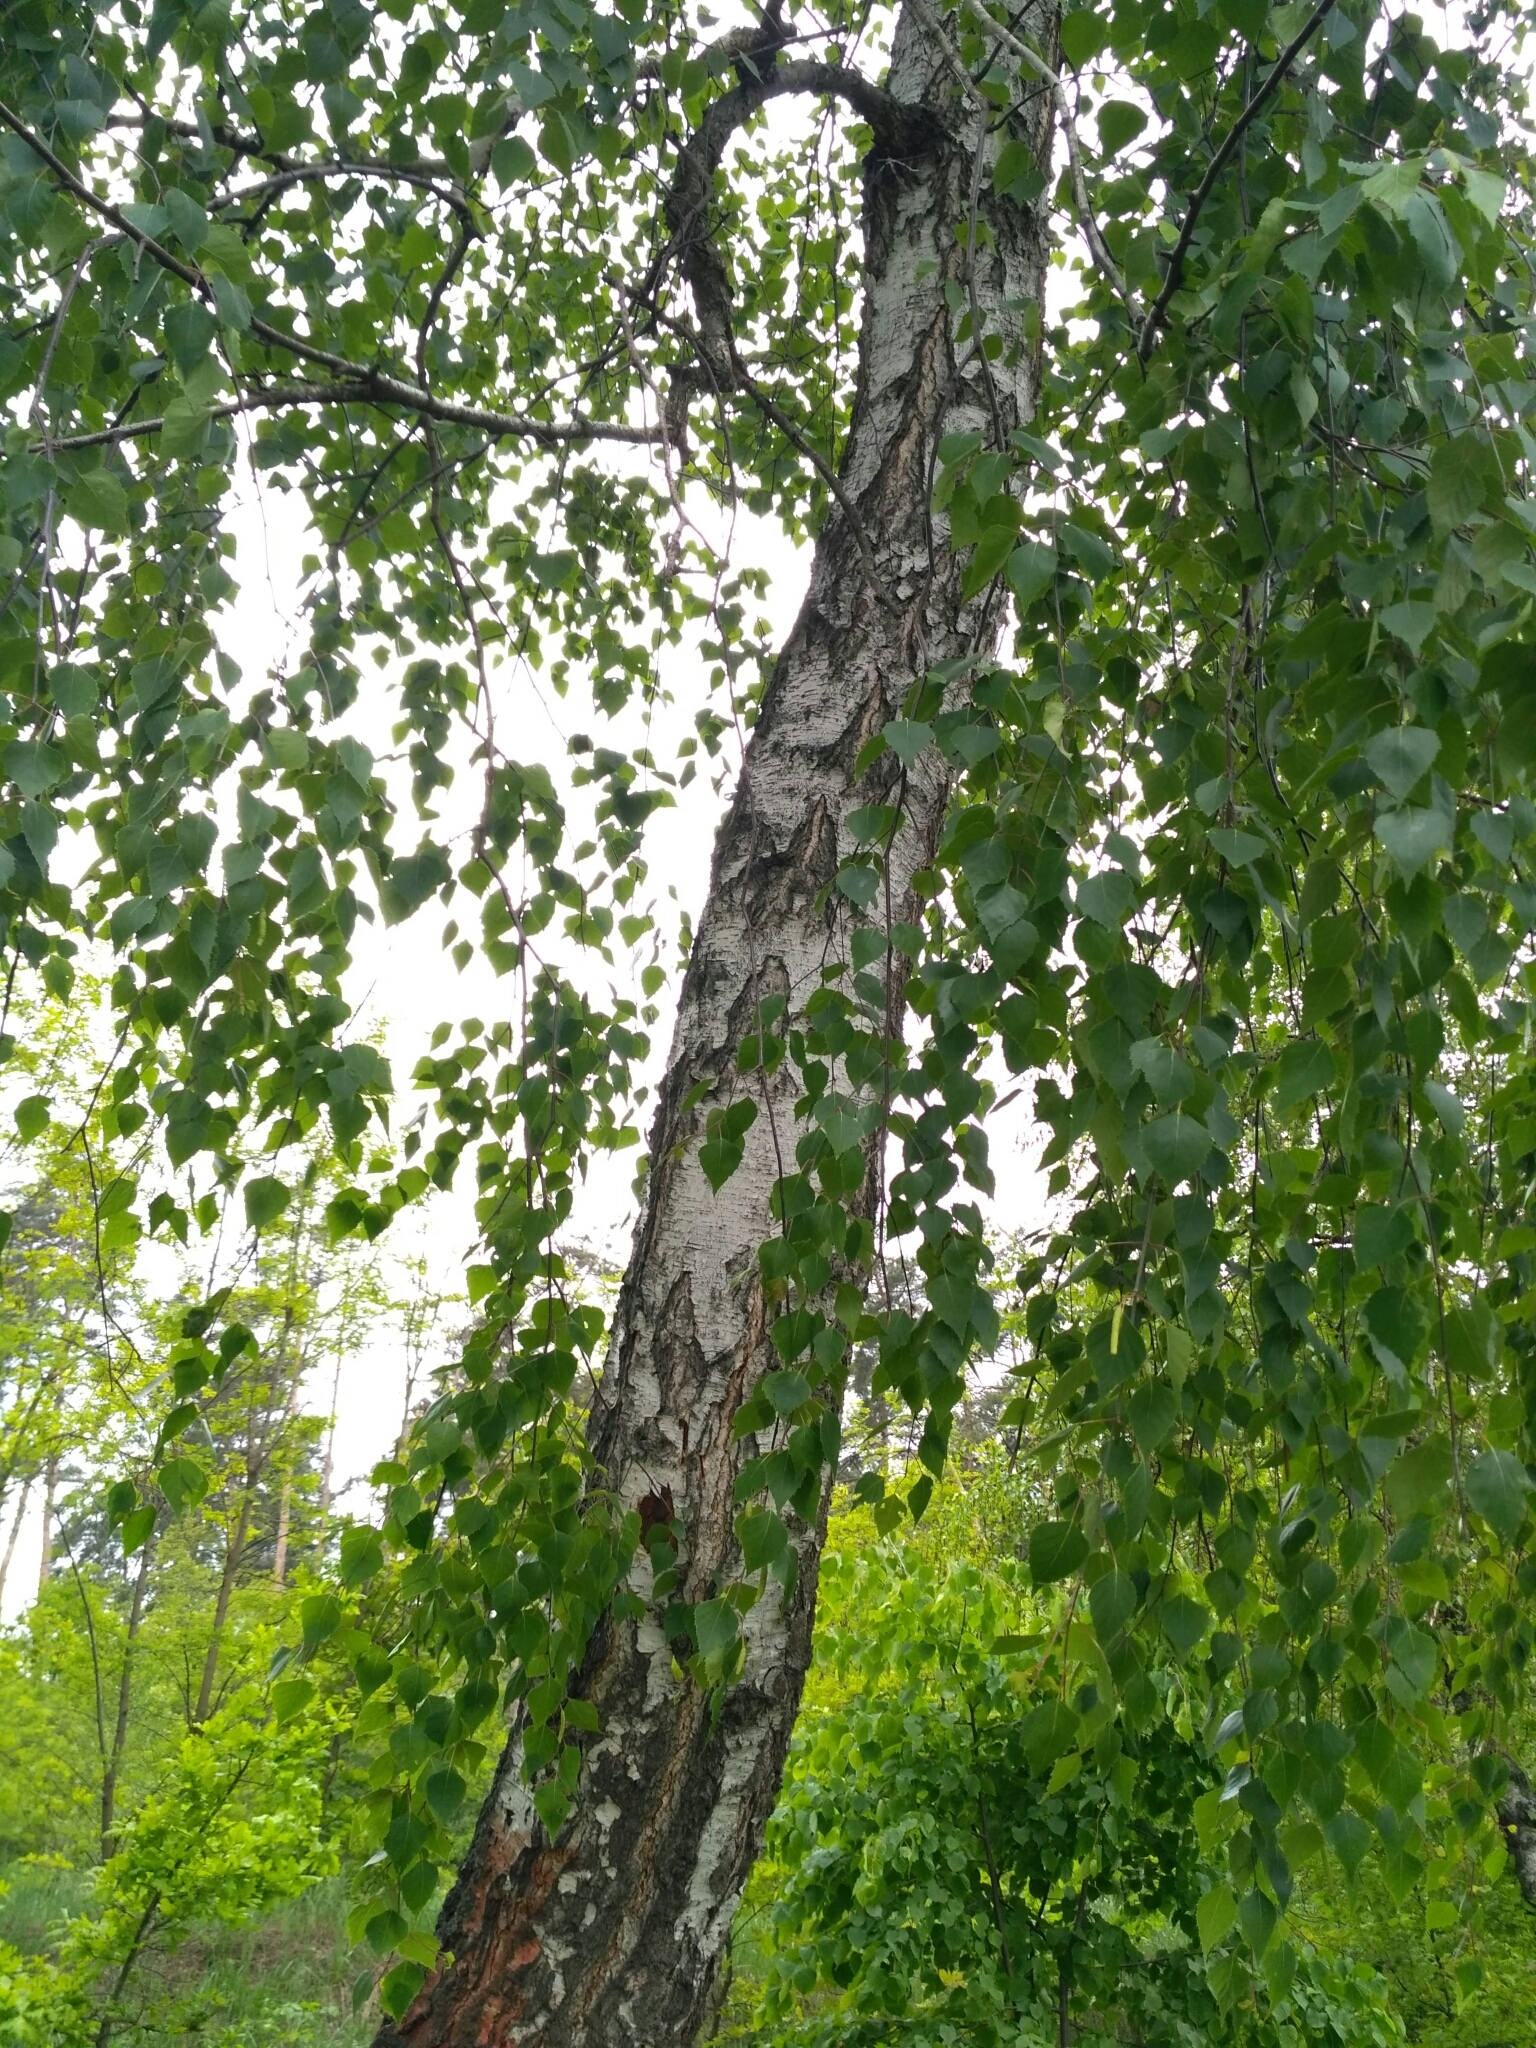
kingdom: Plantae
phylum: Tracheophyta
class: Magnoliopsida
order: Fagales
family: Betulaceae
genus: Betula
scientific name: Betula pendula
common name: Silver birch
